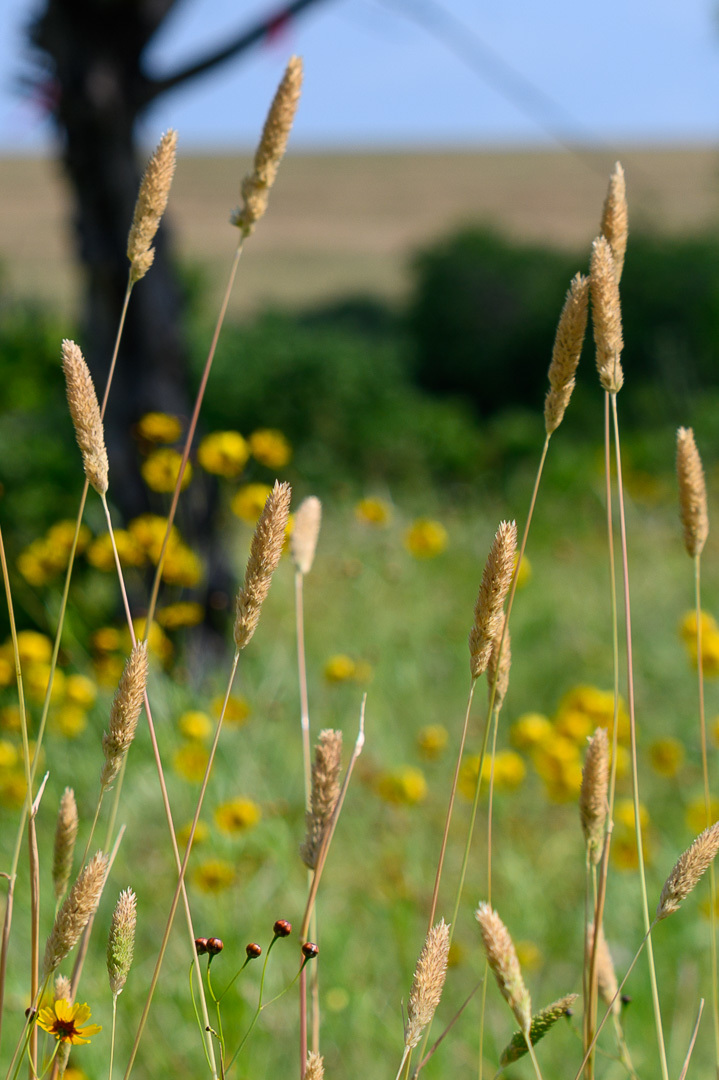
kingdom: Plantae
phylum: Tracheophyta
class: Liliopsida
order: Poales
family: Poaceae
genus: Phalaris
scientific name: Phalaris caroliniana
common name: May grass
